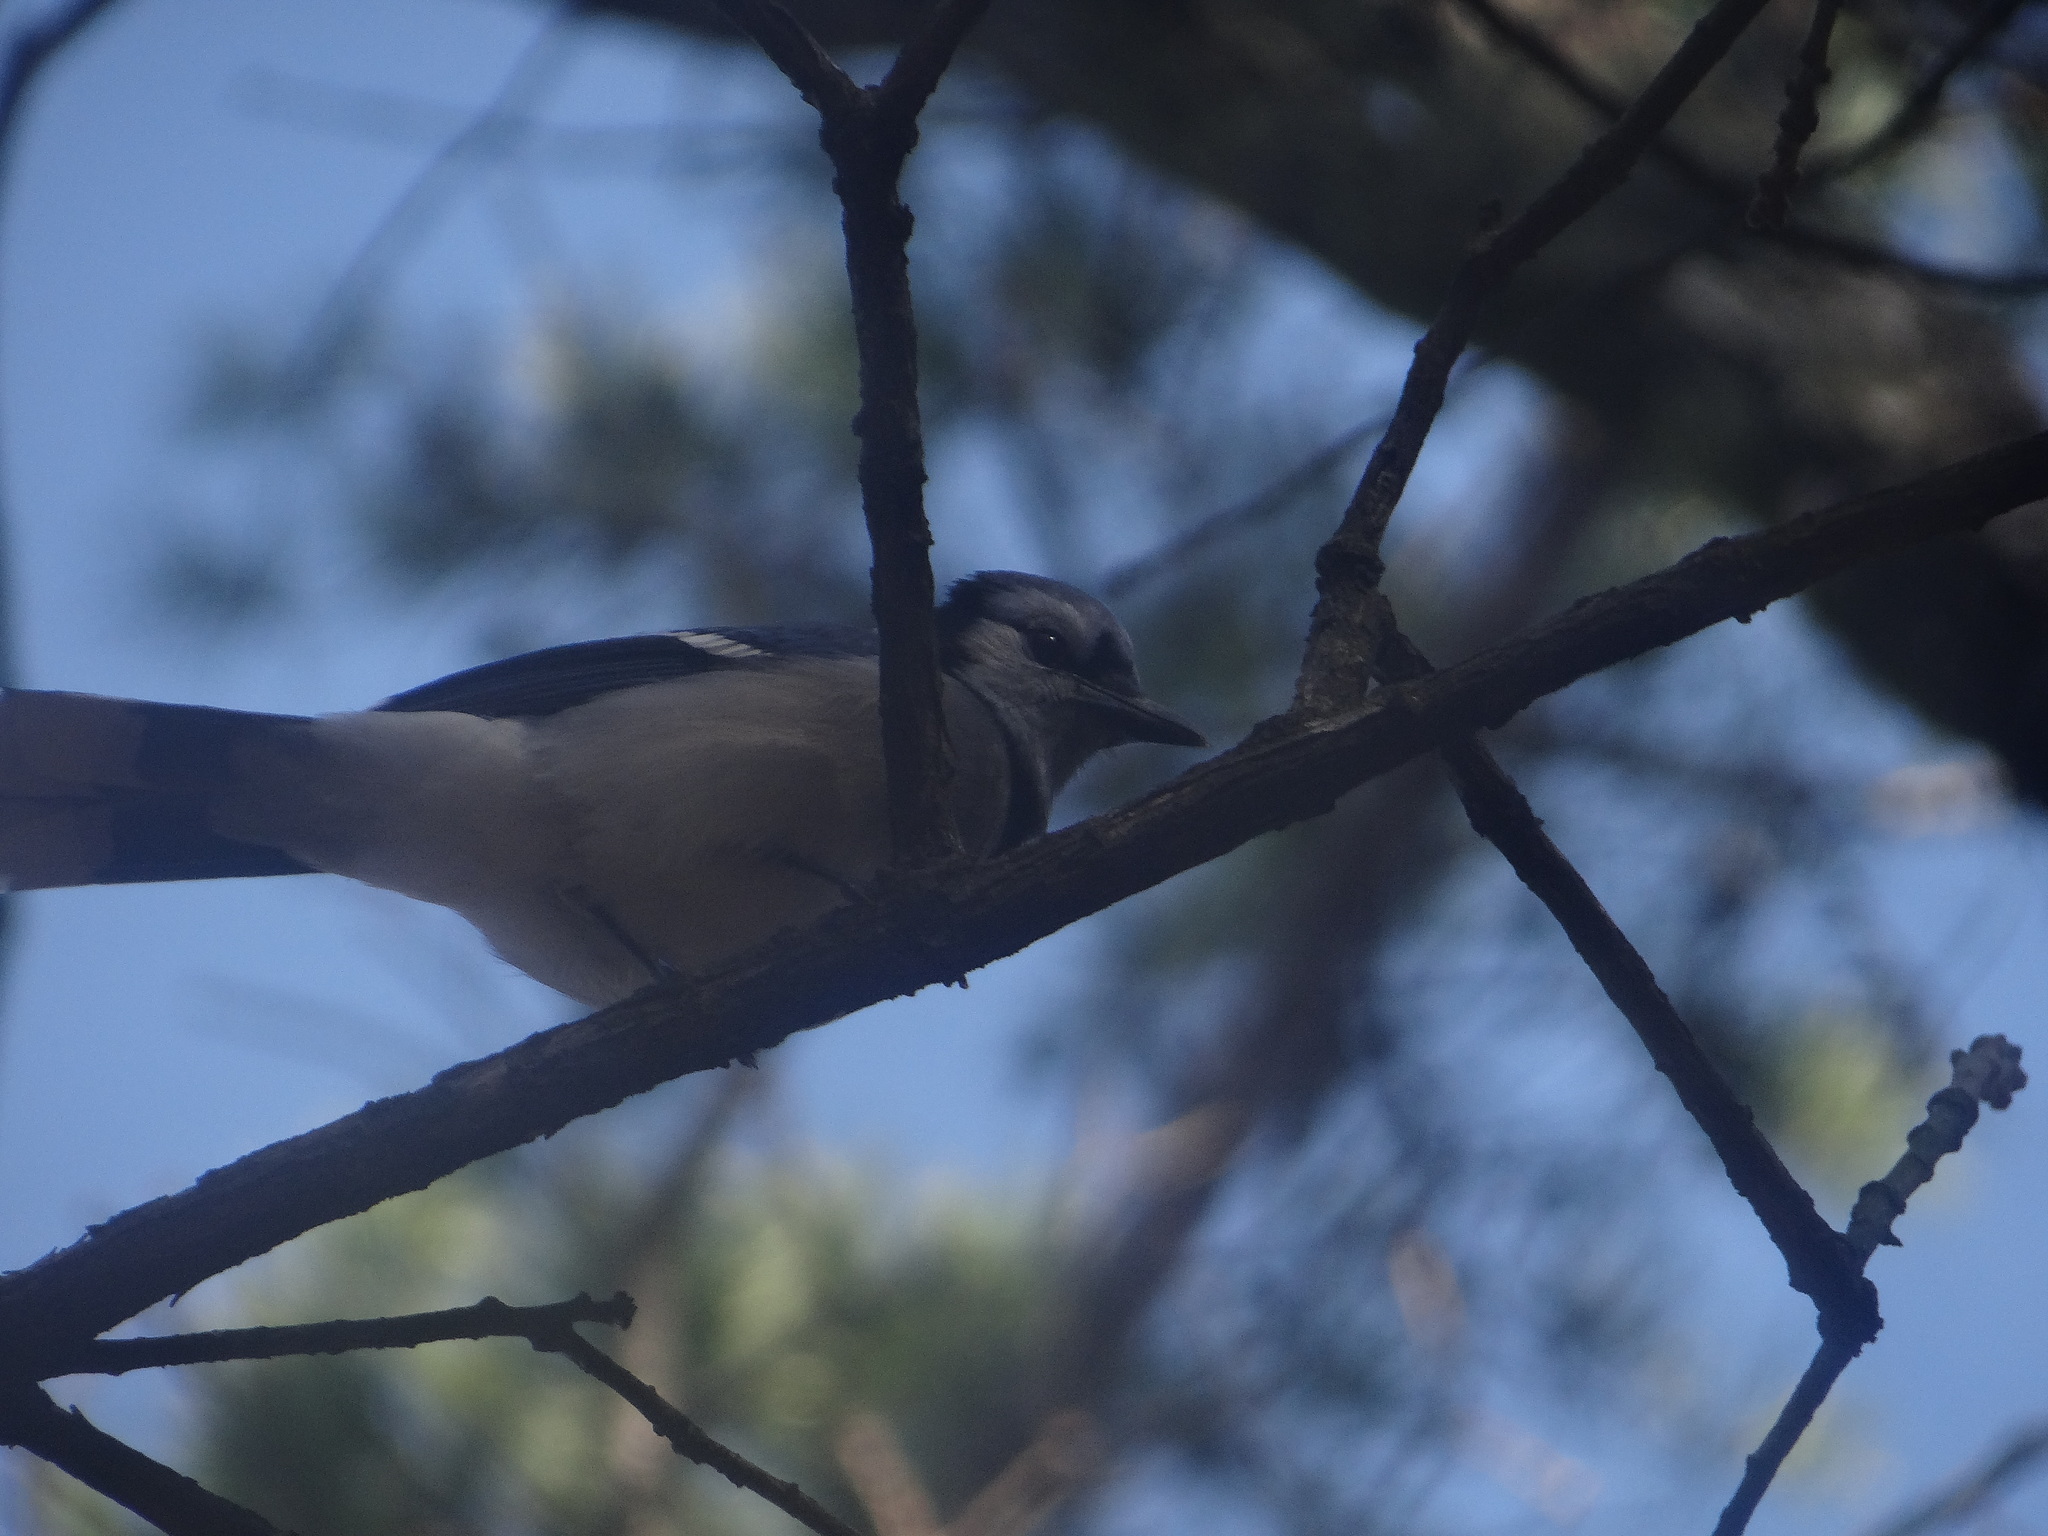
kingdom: Animalia
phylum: Chordata
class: Aves
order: Passeriformes
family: Corvidae
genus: Cyanocitta
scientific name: Cyanocitta cristata
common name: Blue jay
